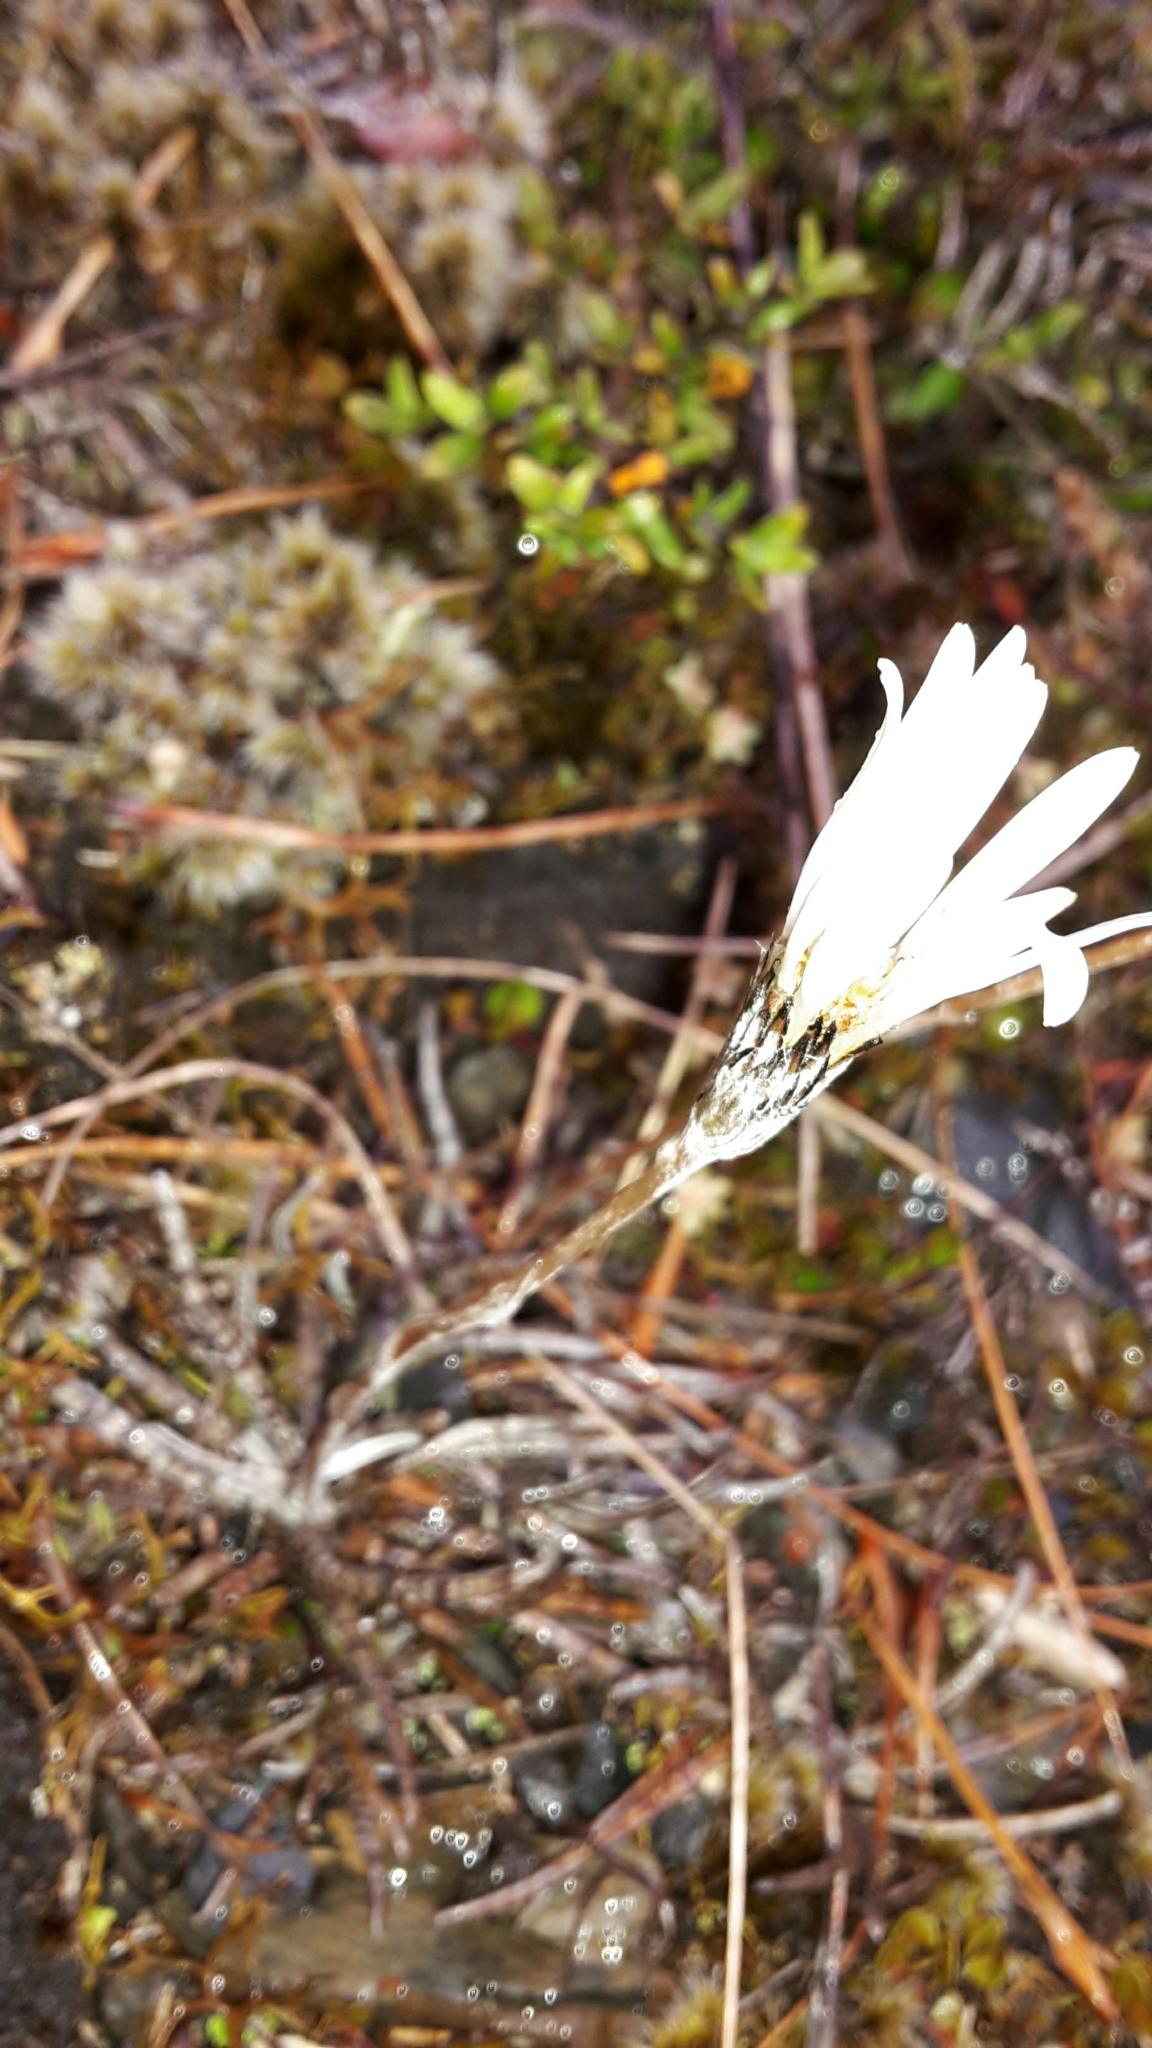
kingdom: Plantae
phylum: Tracheophyta
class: Magnoliopsida
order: Asterales
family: Asteraceae
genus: Celmisia
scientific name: Celmisia gracilenta
